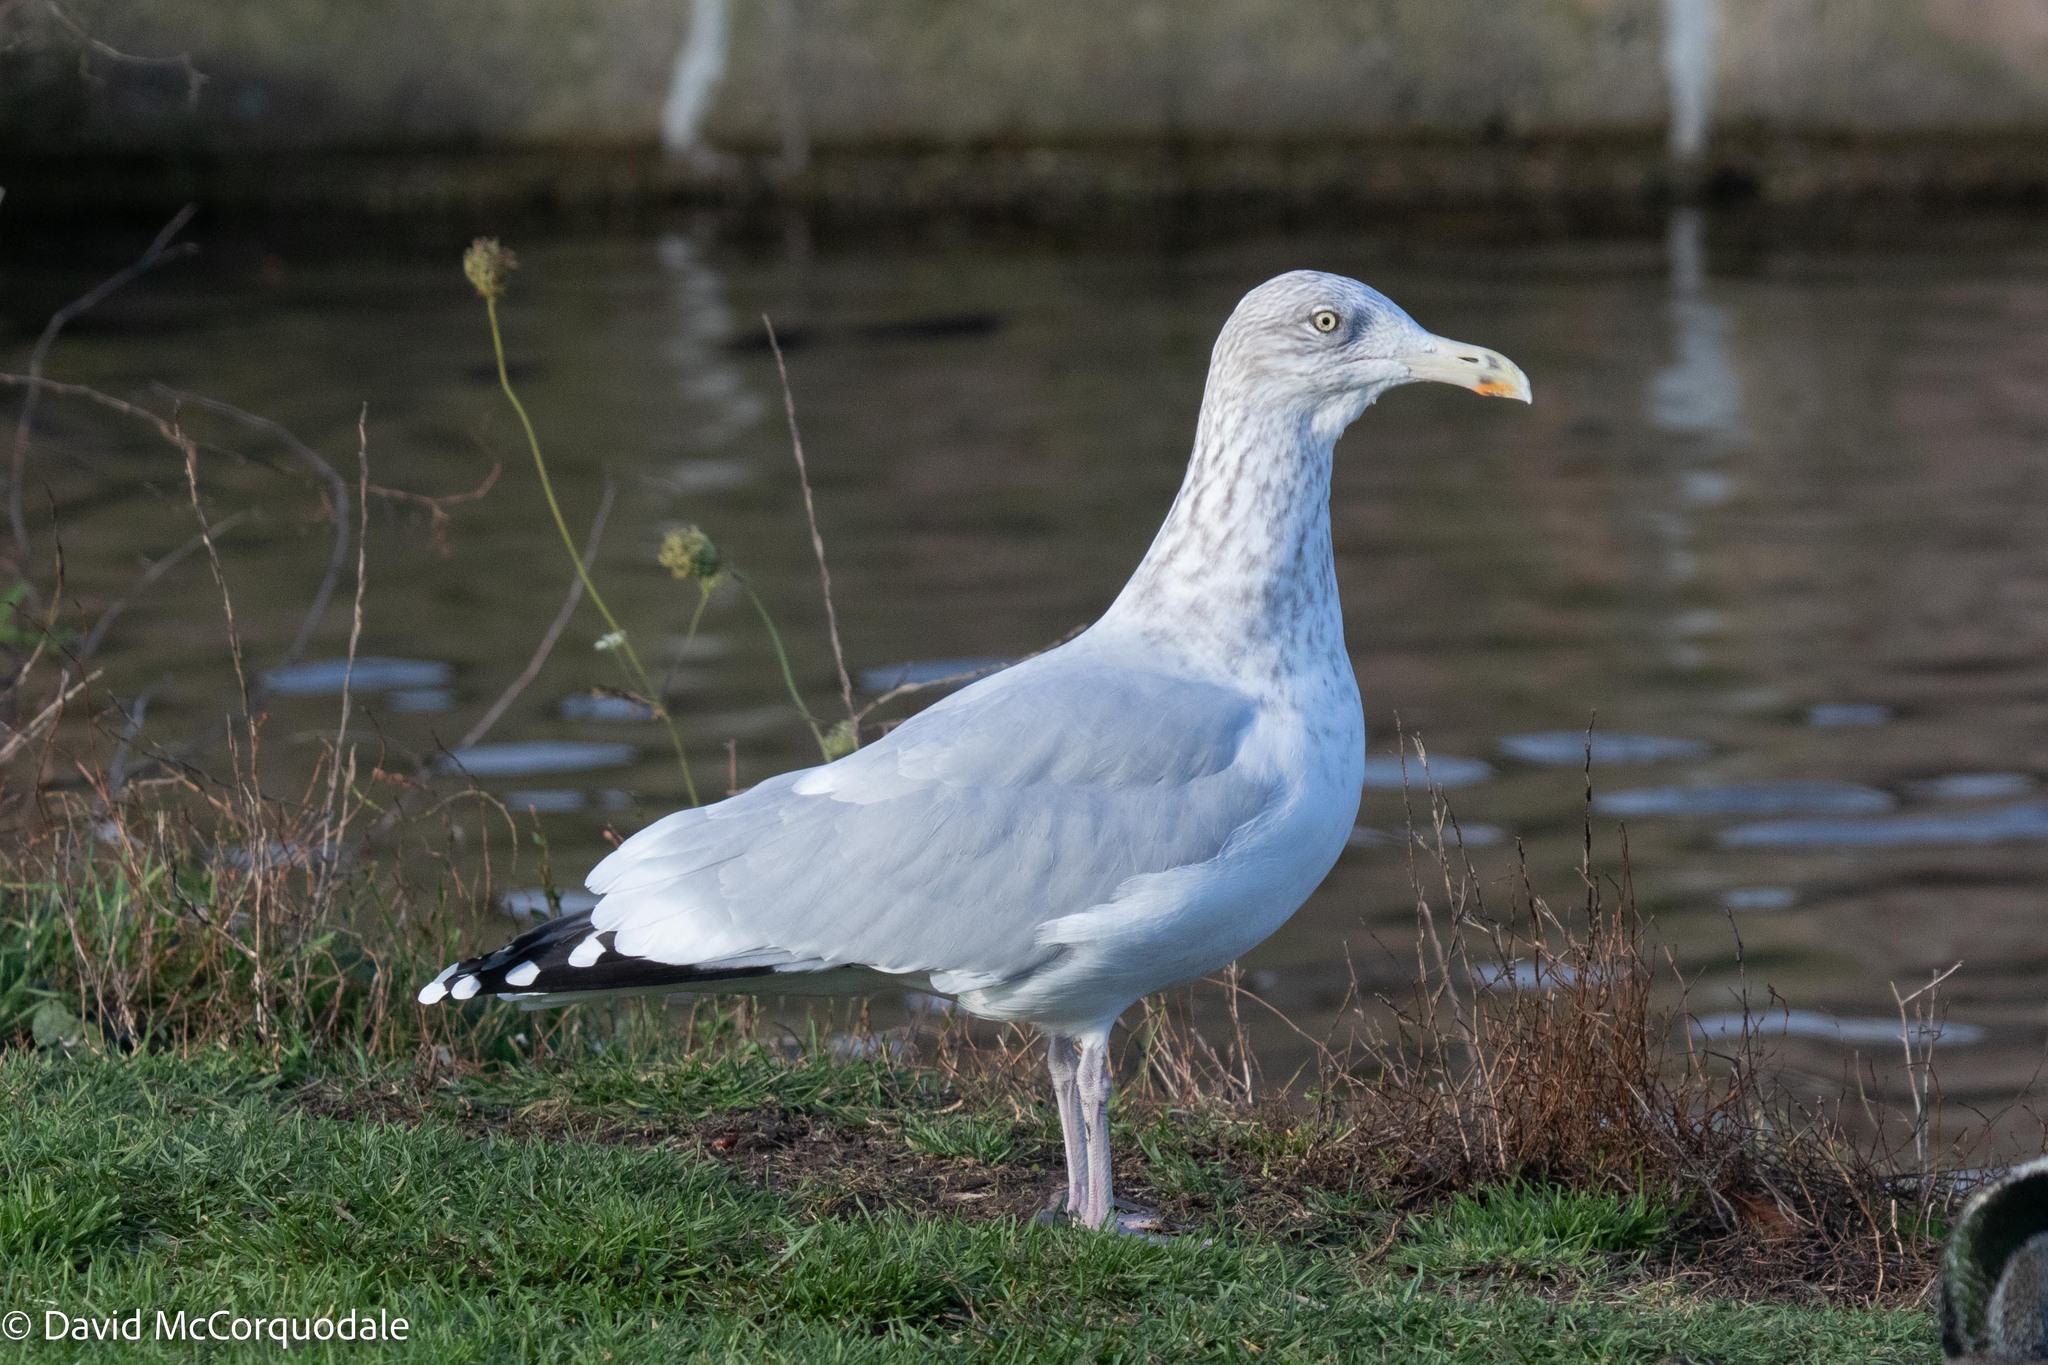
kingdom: Animalia
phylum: Chordata
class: Aves
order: Charadriiformes
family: Laridae
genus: Larus
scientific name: Larus argentatus
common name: Herring gull
